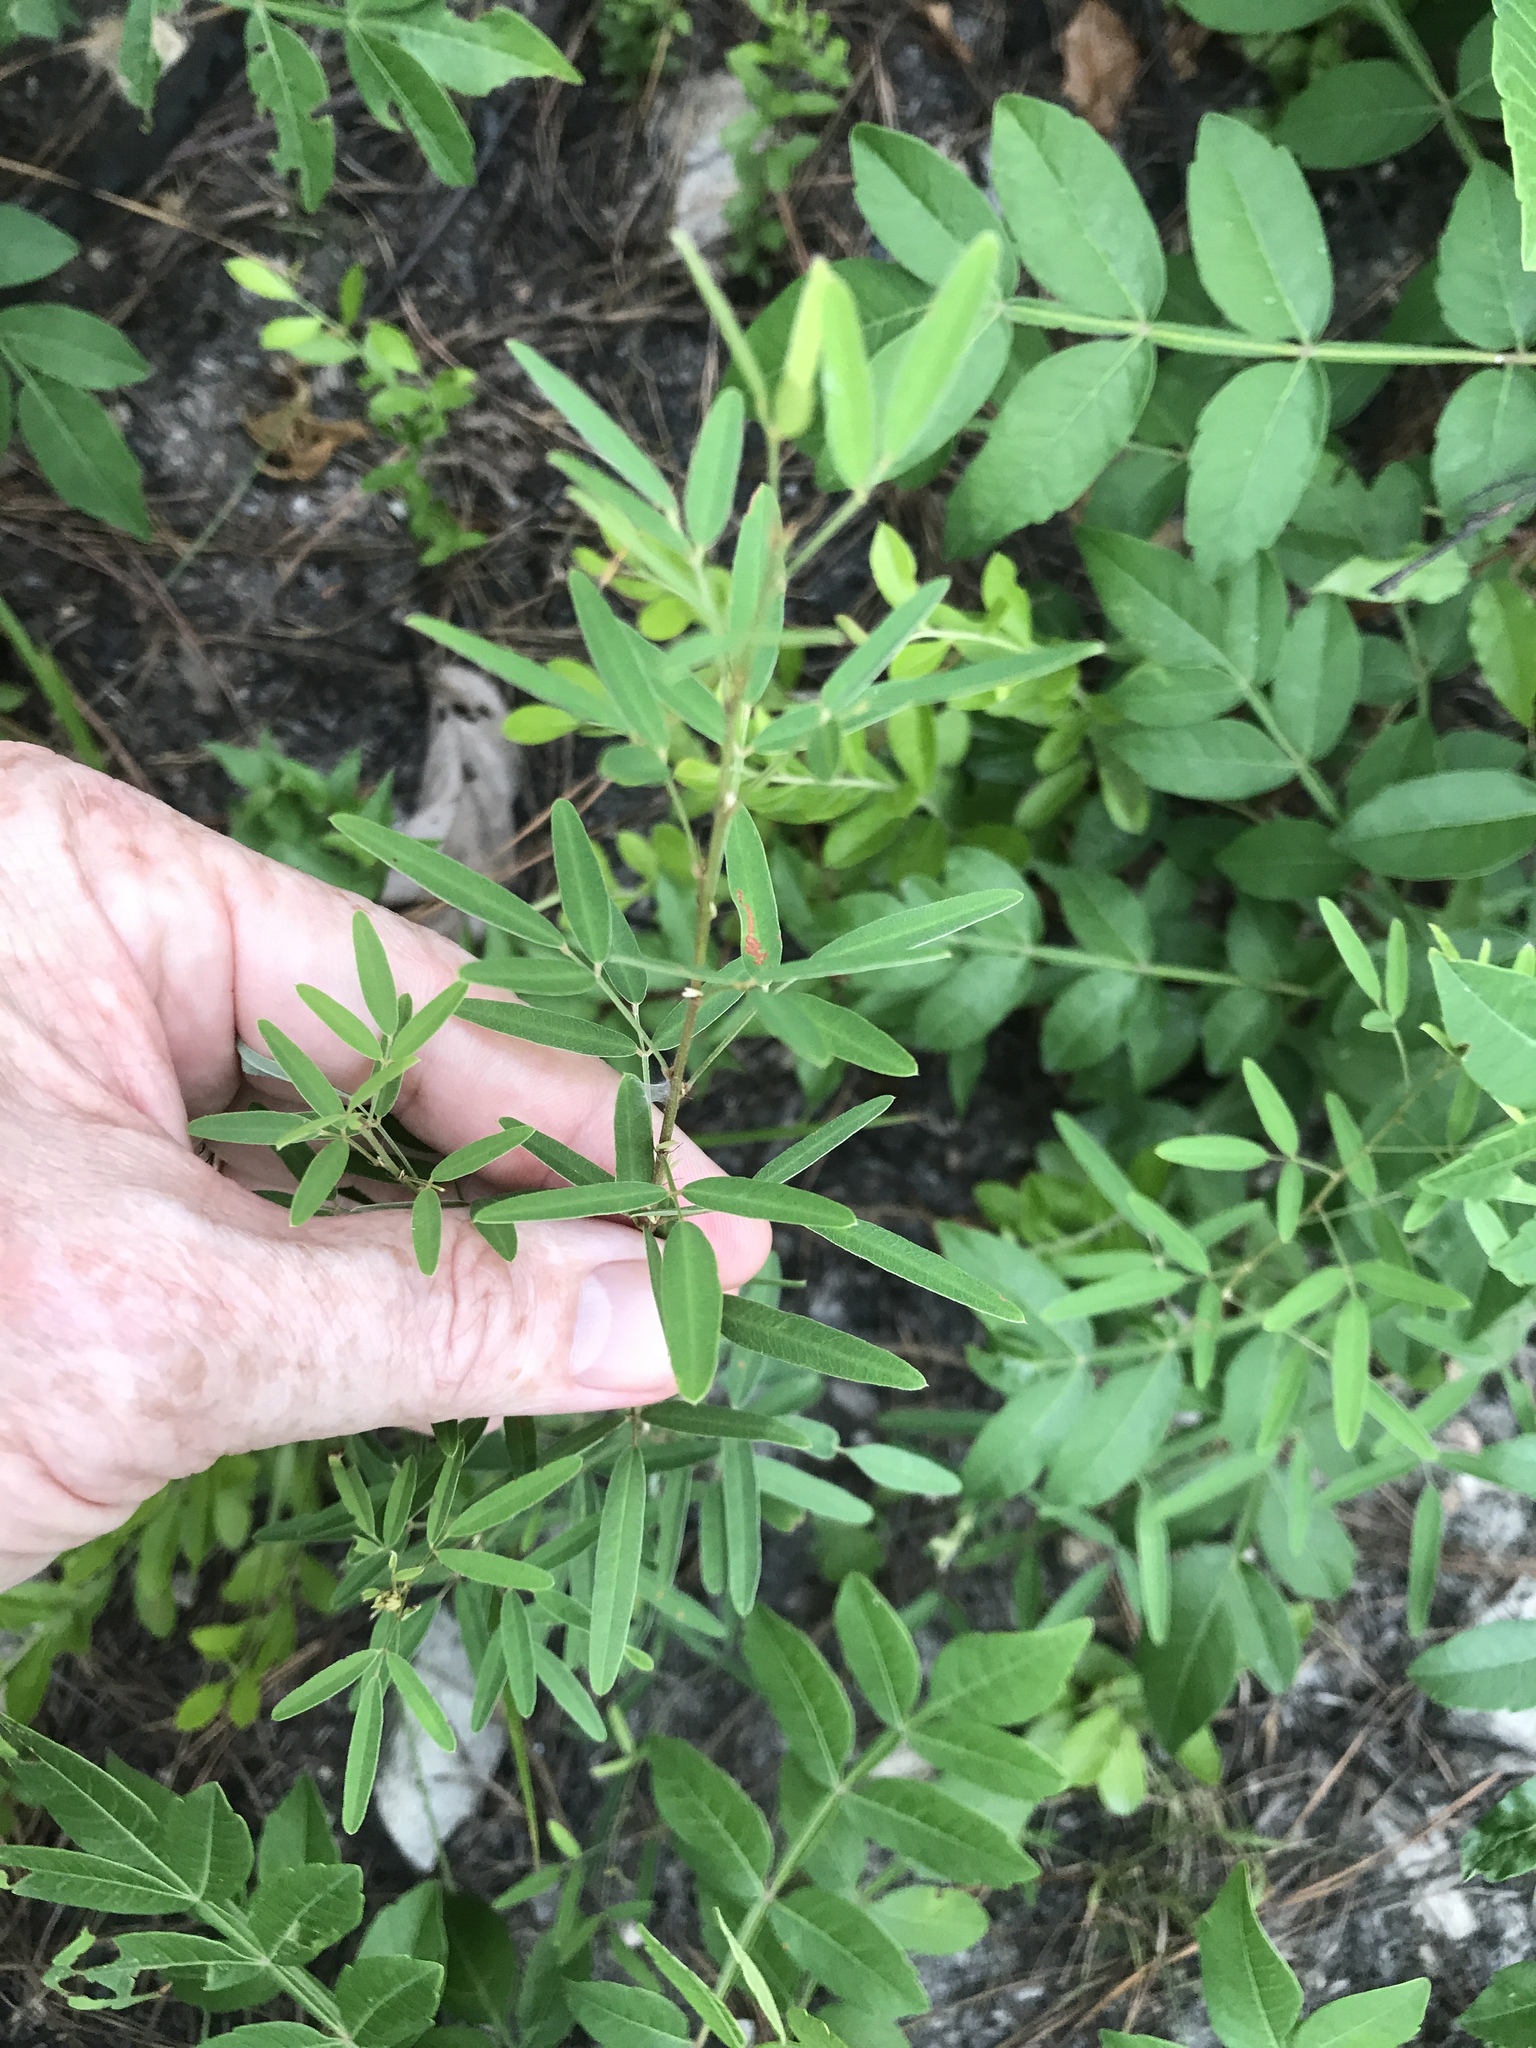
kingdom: Plantae
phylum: Tracheophyta
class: Magnoliopsida
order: Fabales
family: Fabaceae
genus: Lespedeza
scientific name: Lespedeza virginica
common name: Slender bush-clover
